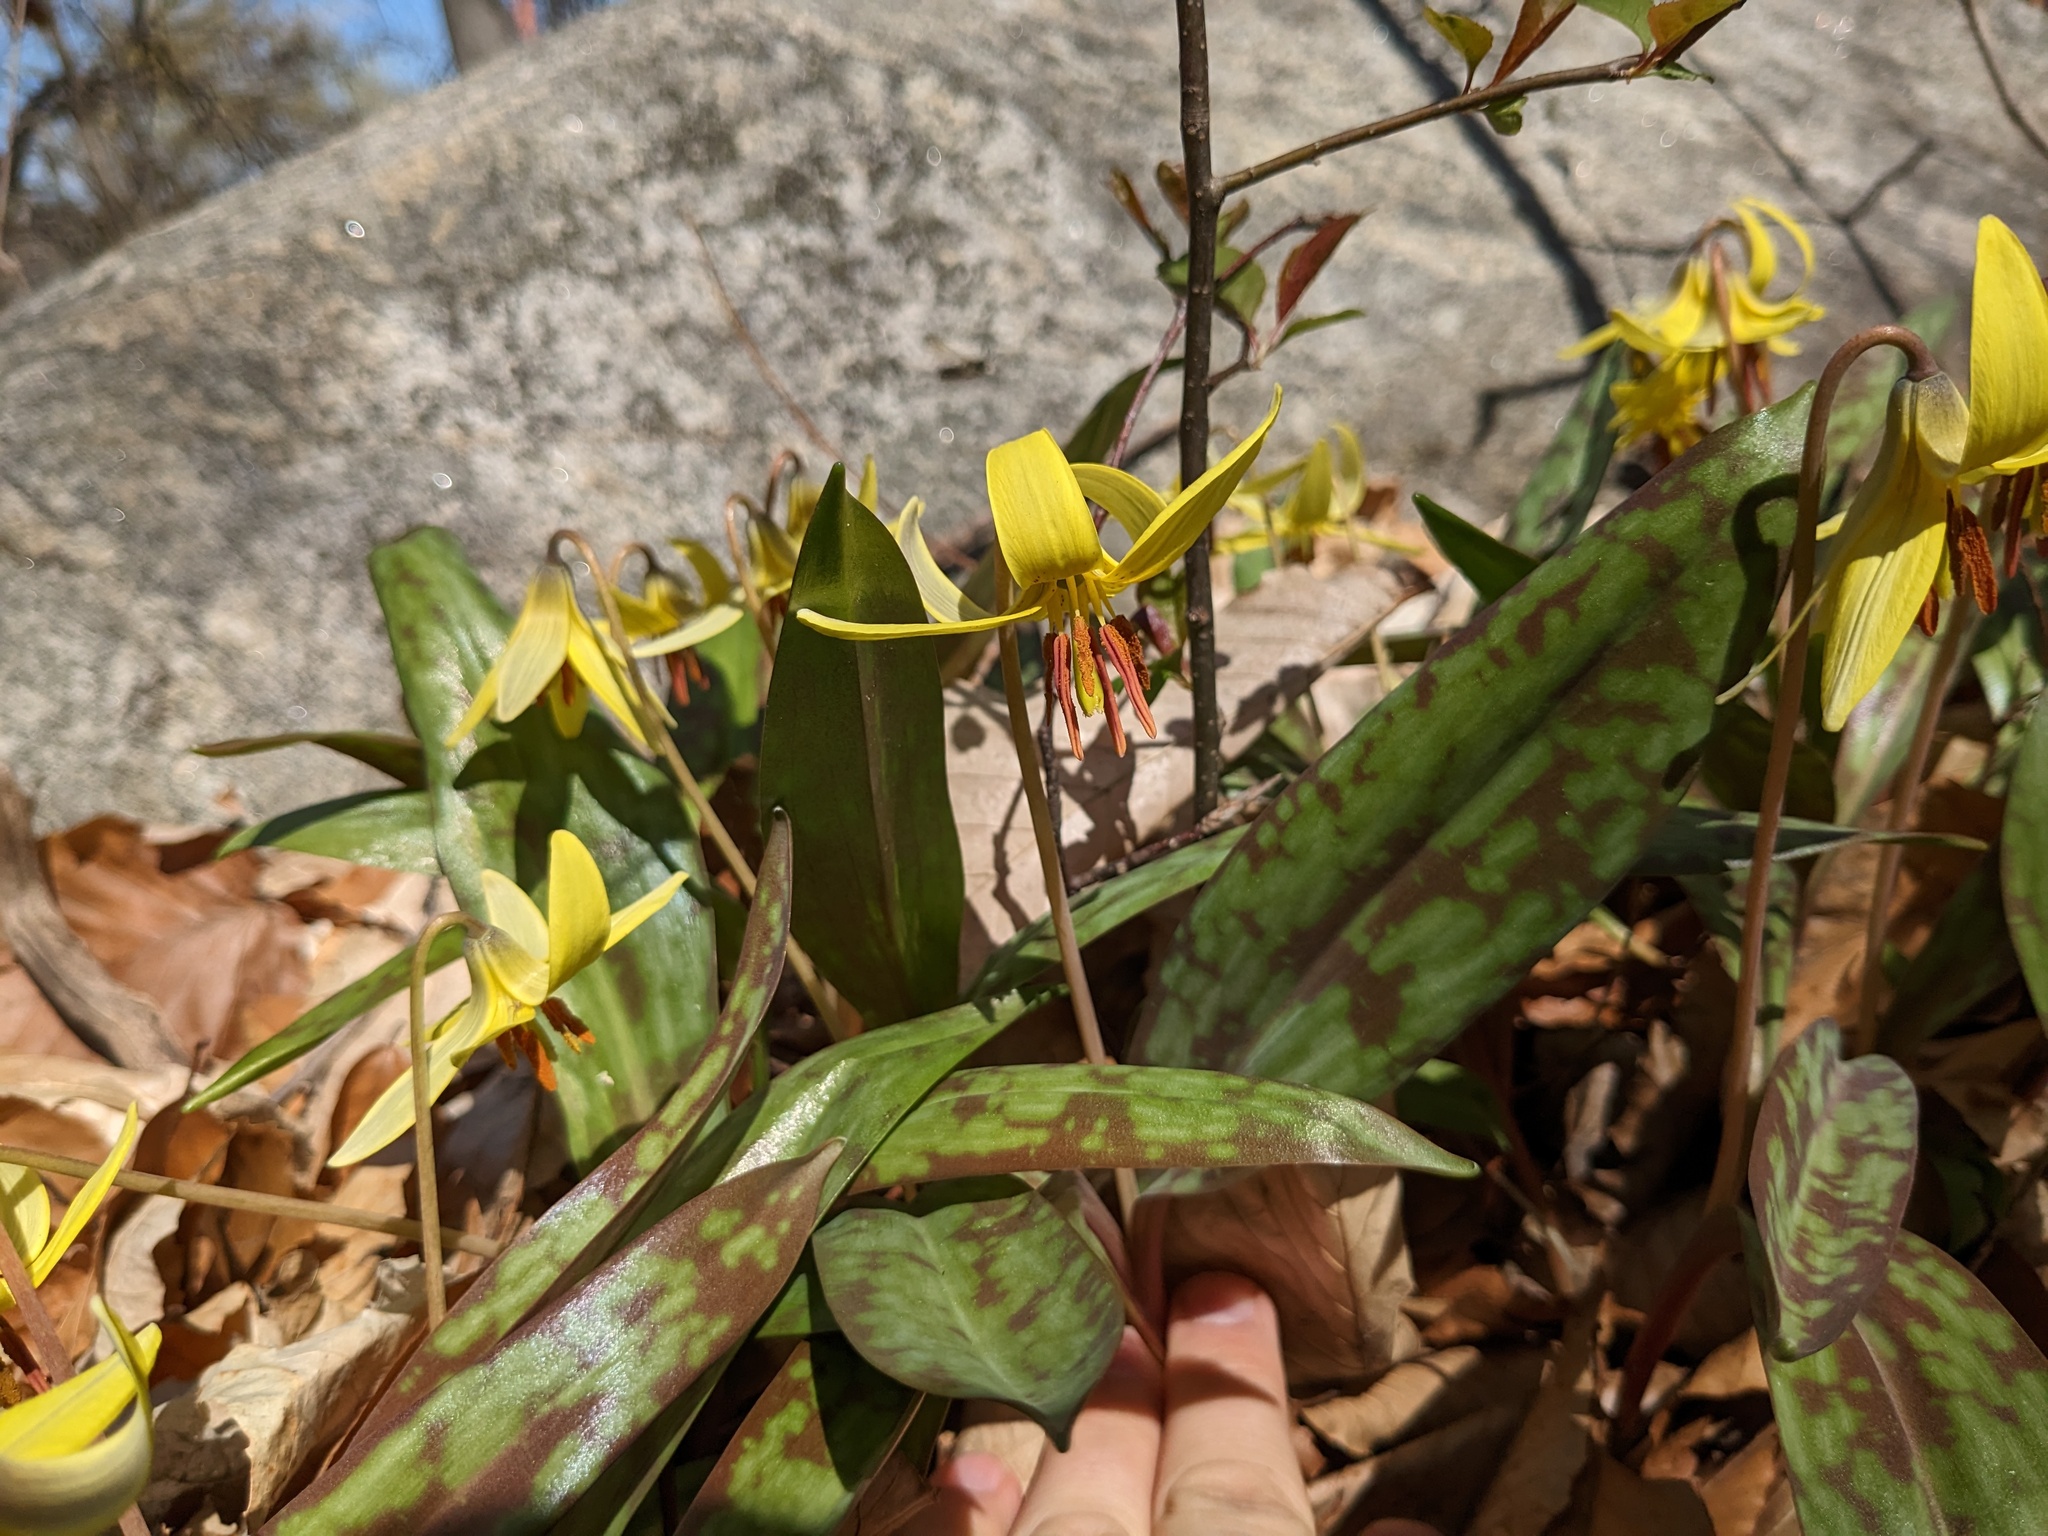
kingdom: Plantae
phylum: Tracheophyta
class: Liliopsida
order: Liliales
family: Liliaceae
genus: Erythronium
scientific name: Erythronium americanum
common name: Yellow adder's-tongue
